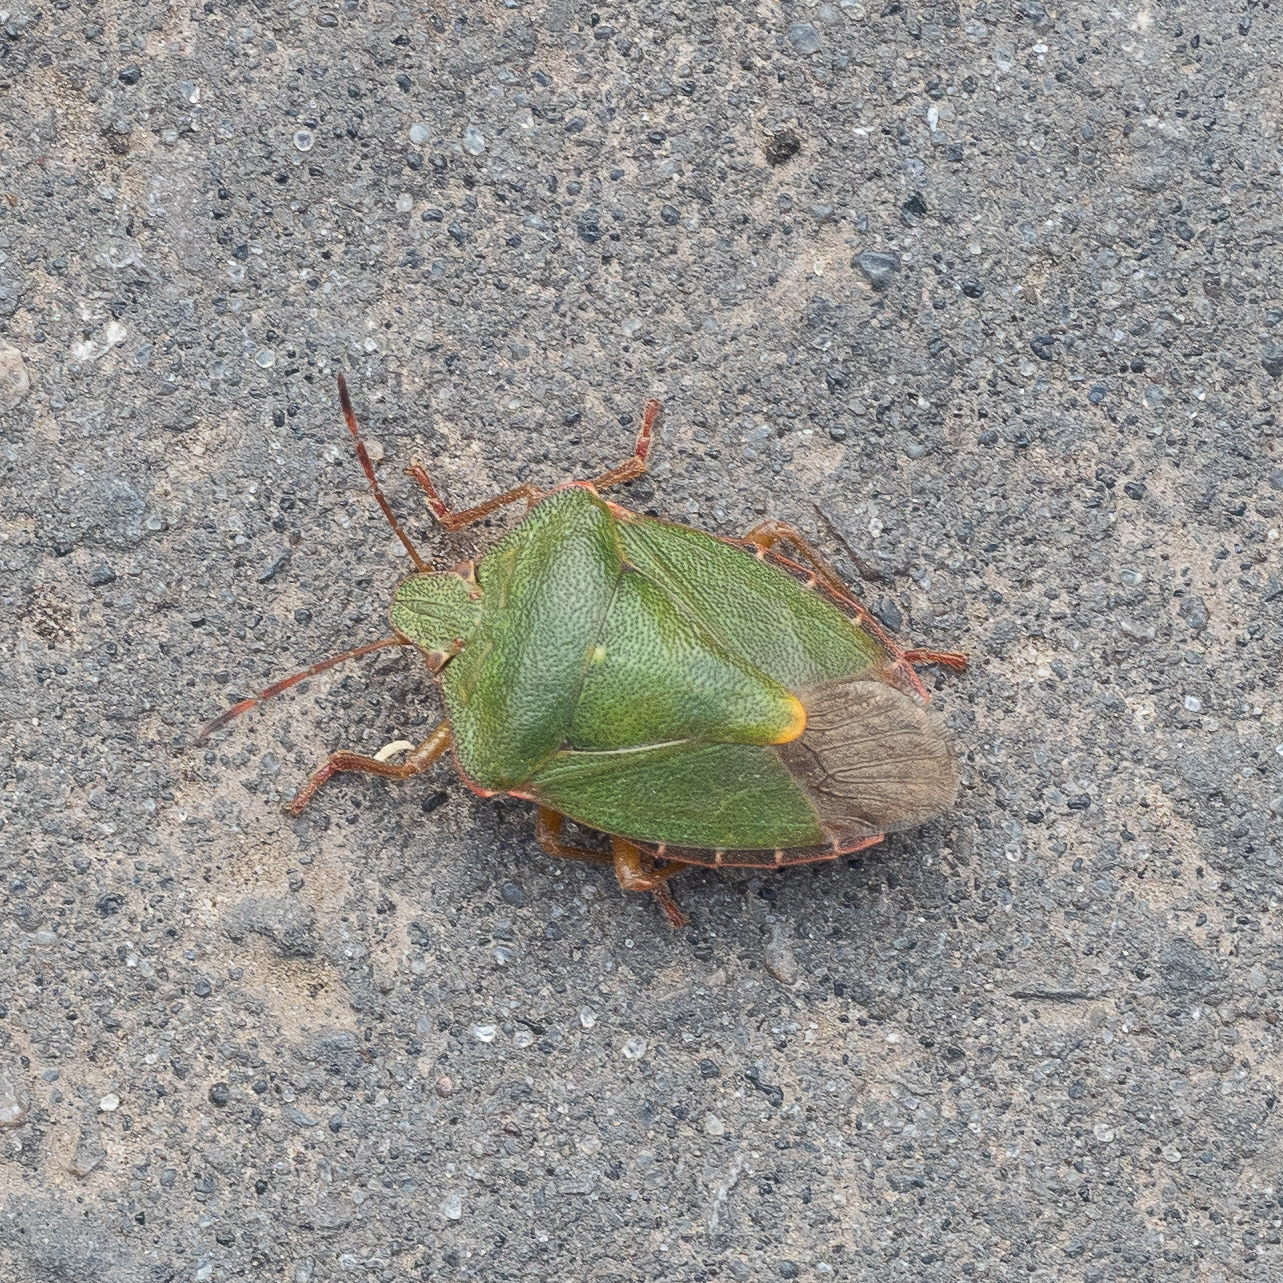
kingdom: Animalia
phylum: Arthropoda
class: Insecta
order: Hemiptera
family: Pentatomidae
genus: Palomena
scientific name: Palomena prasina
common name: Green shieldbug
